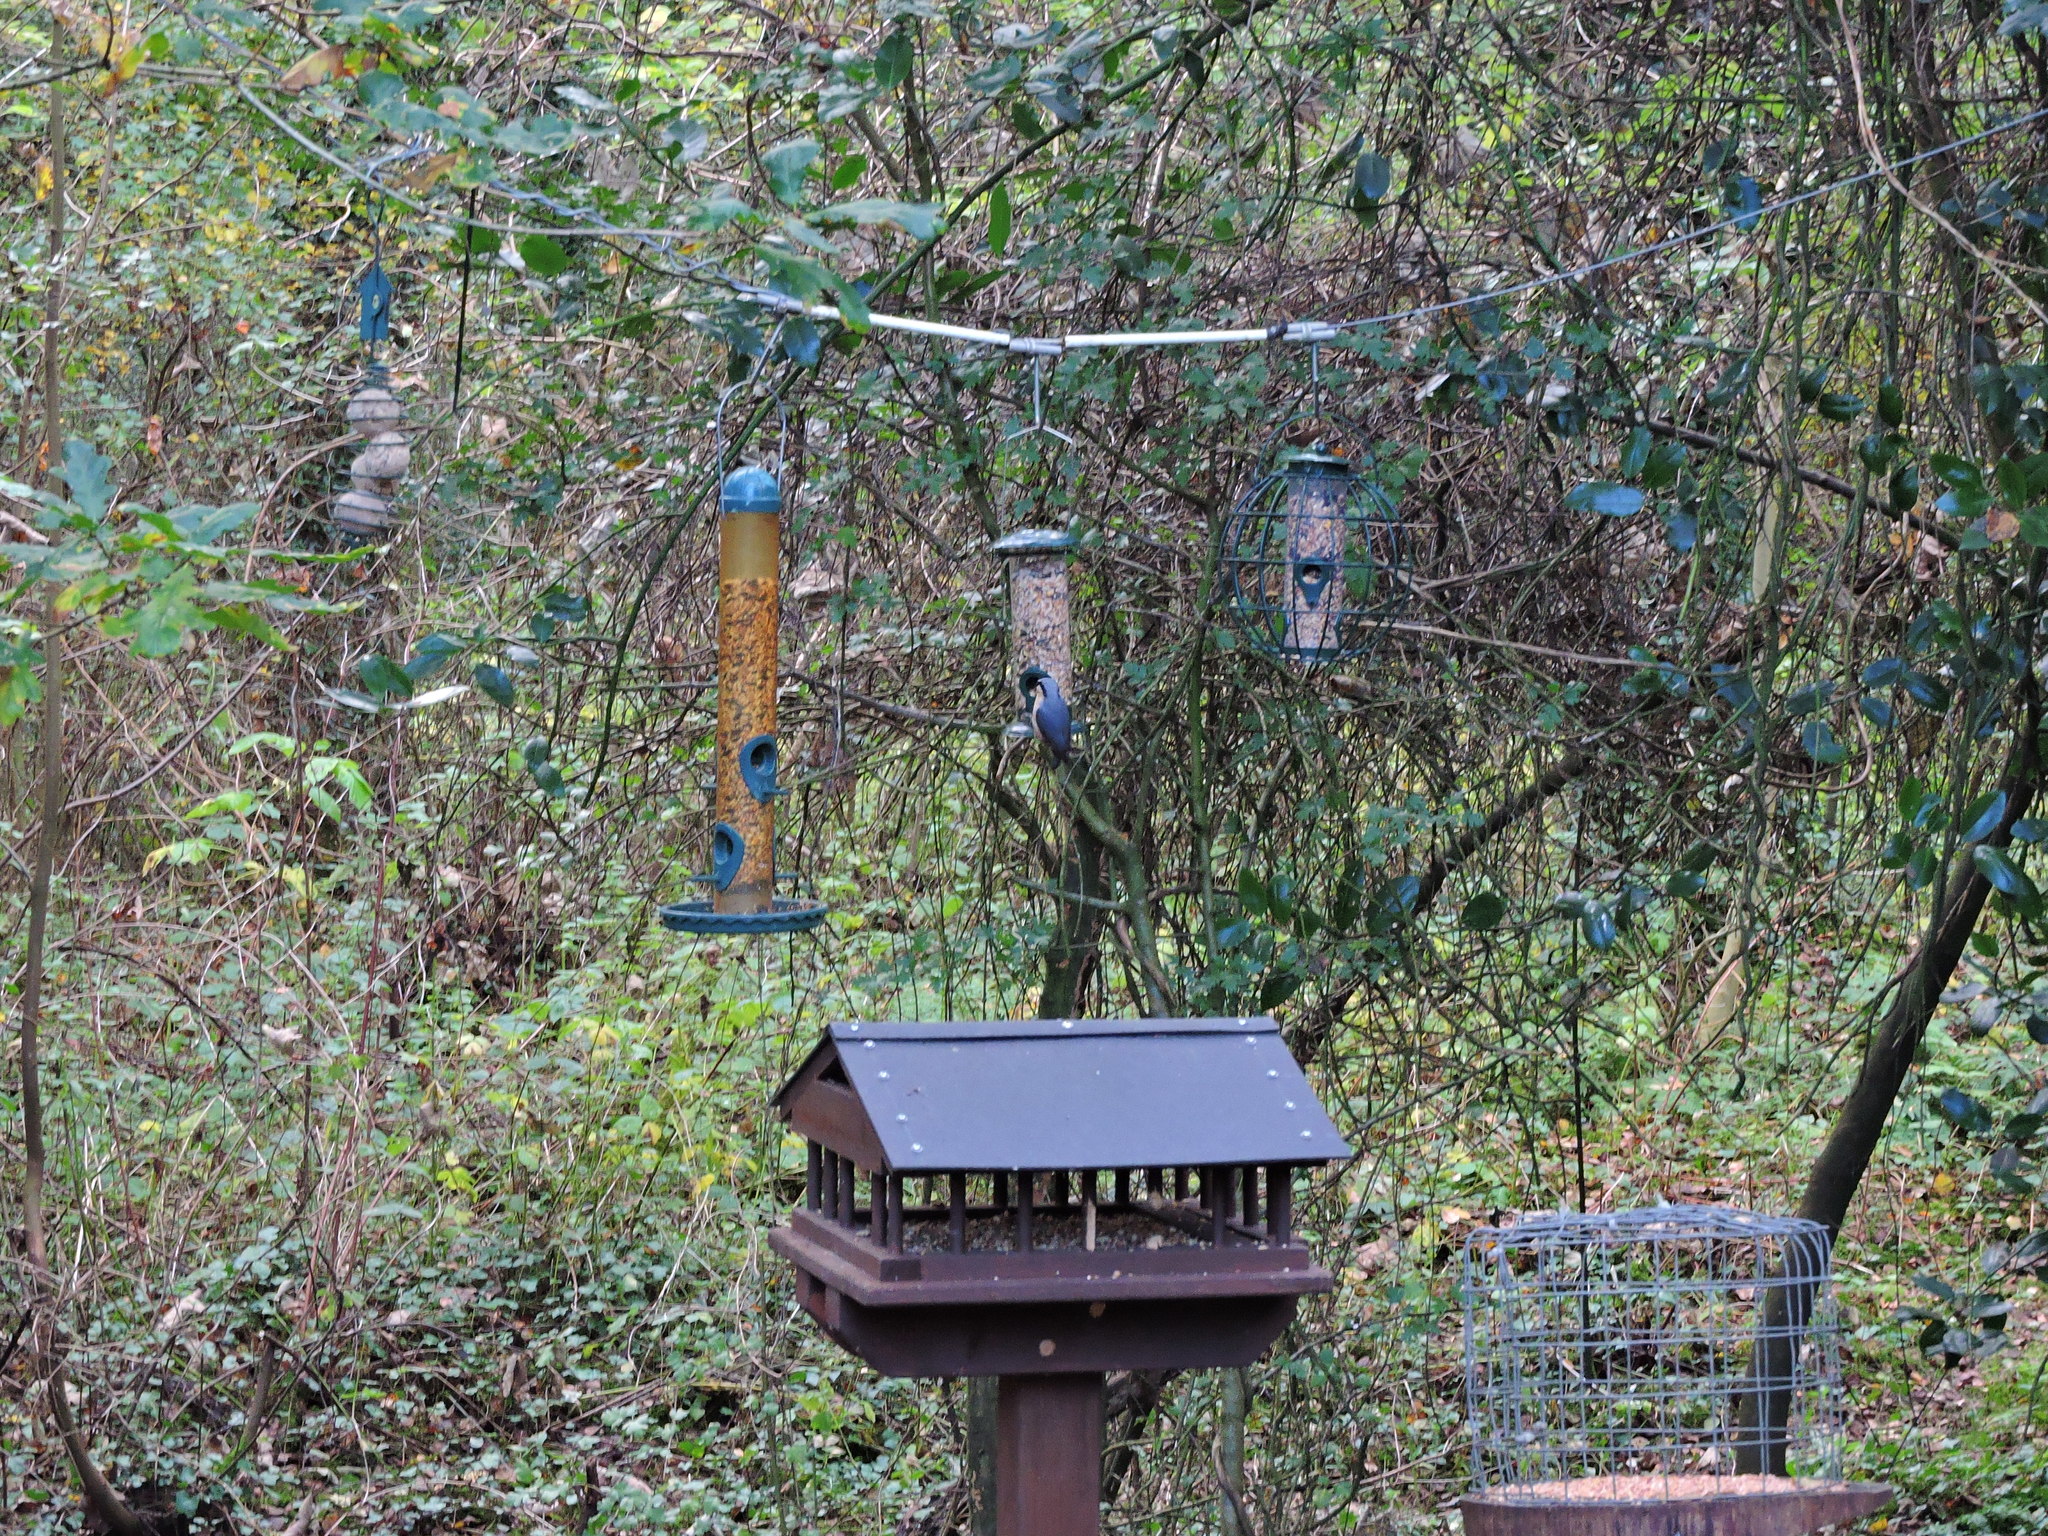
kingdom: Animalia
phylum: Chordata
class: Aves
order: Passeriformes
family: Sittidae
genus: Sitta
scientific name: Sitta europaea
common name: Eurasian nuthatch
